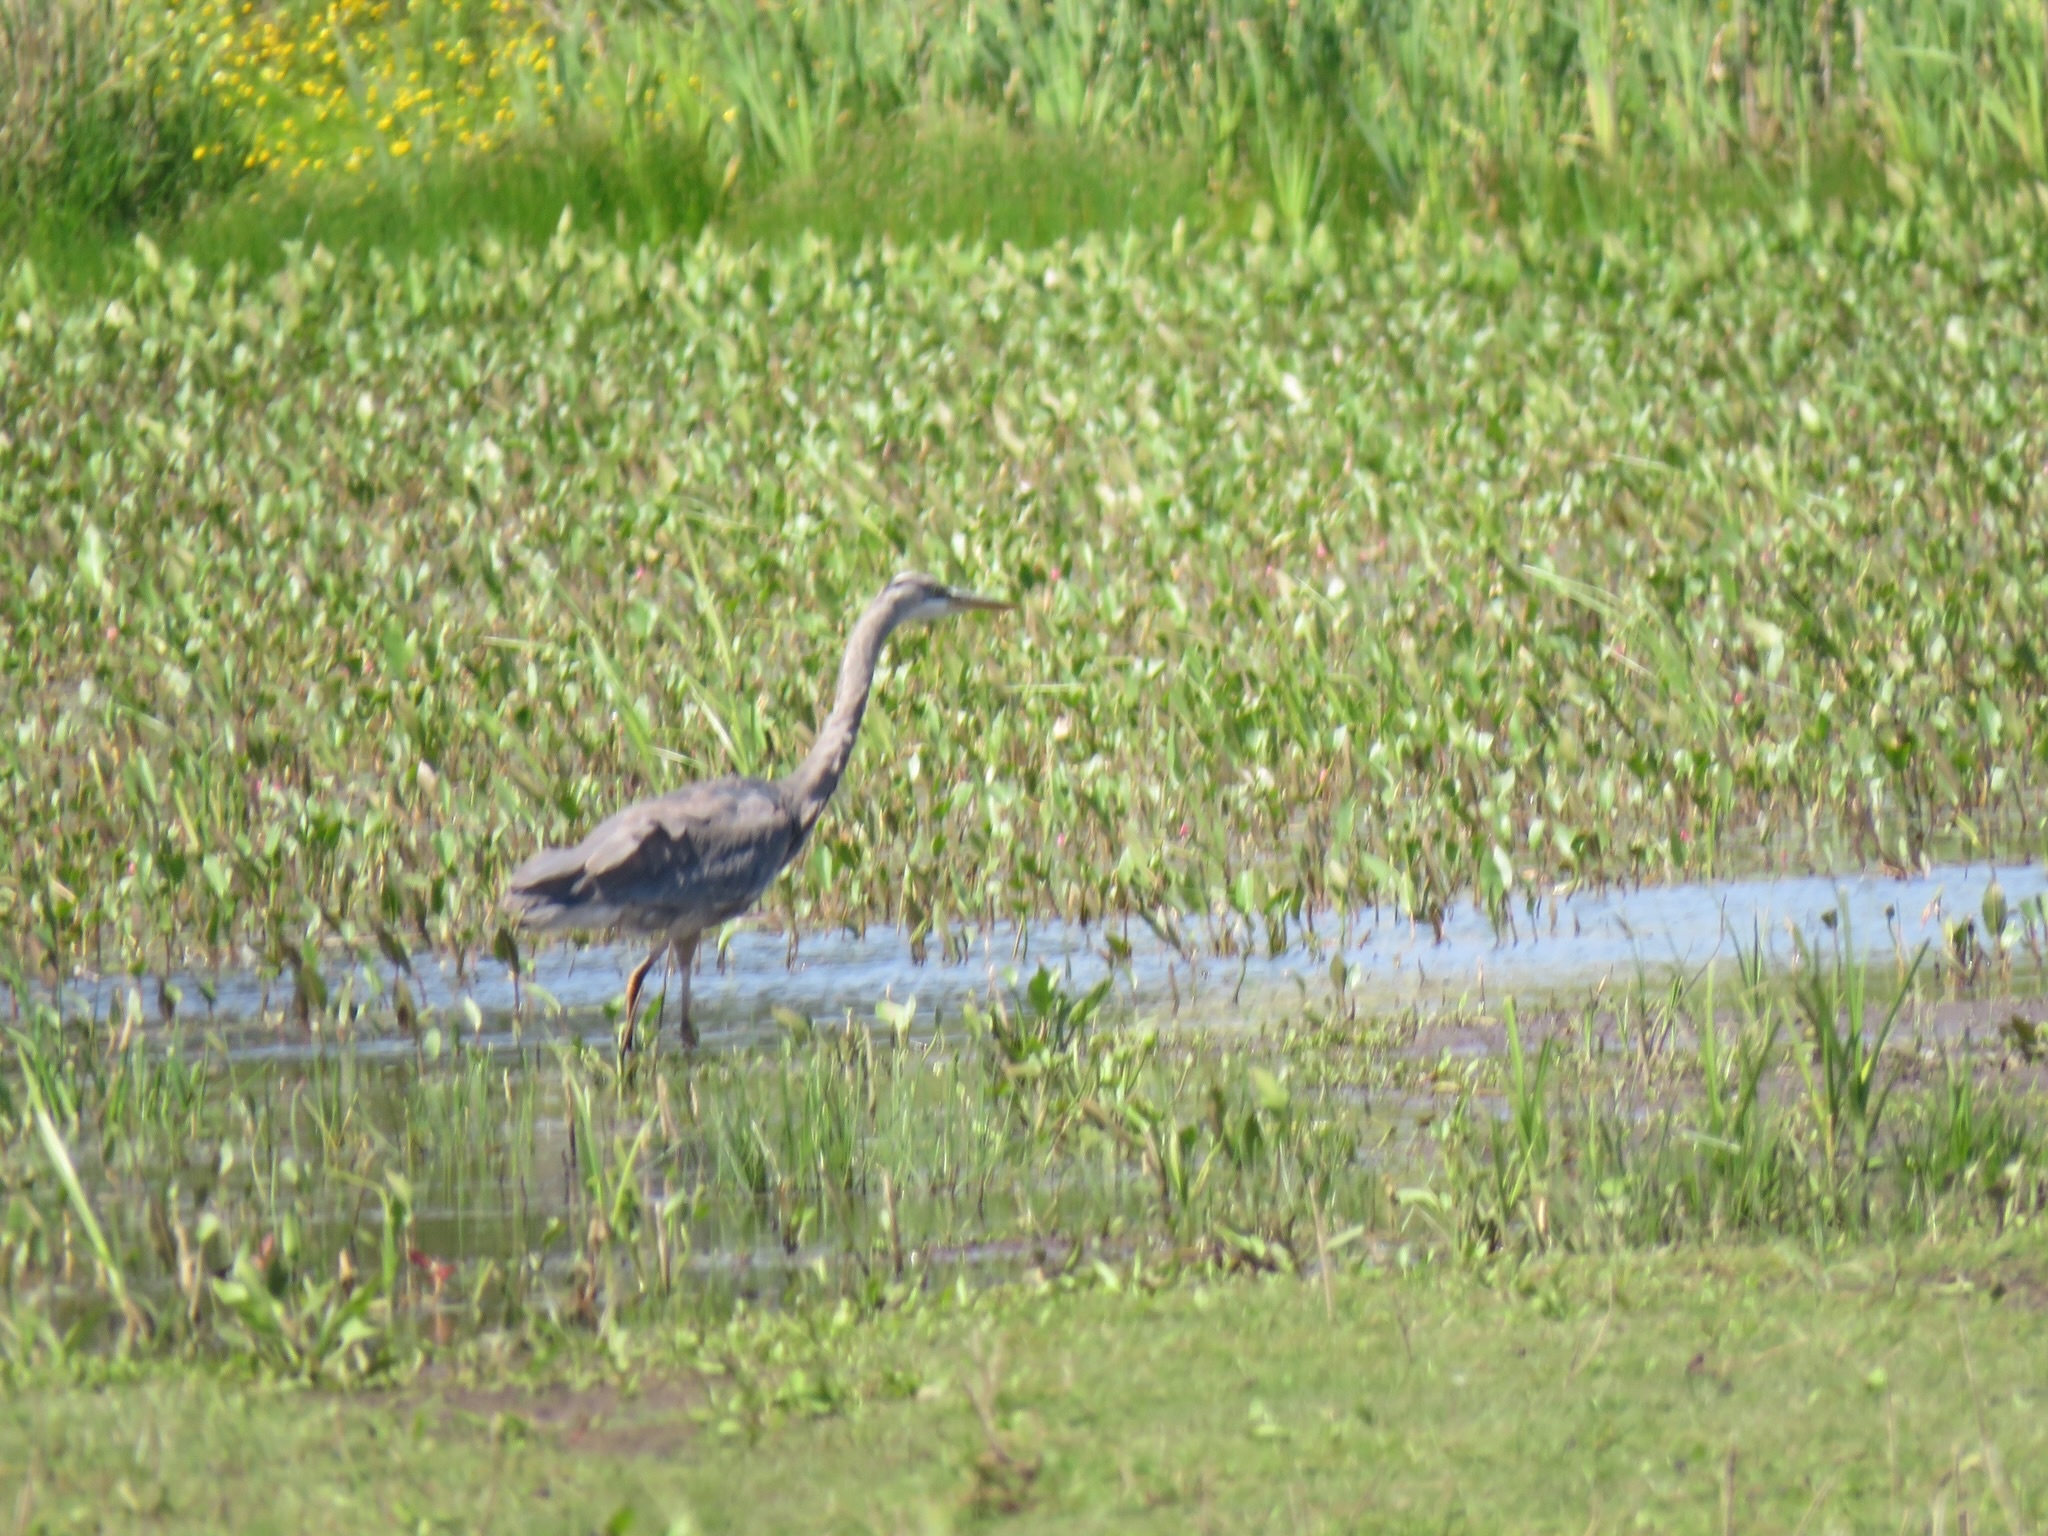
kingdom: Animalia
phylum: Chordata
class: Aves
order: Pelecaniformes
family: Ardeidae
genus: Ardea
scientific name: Ardea herodias
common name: Great blue heron
